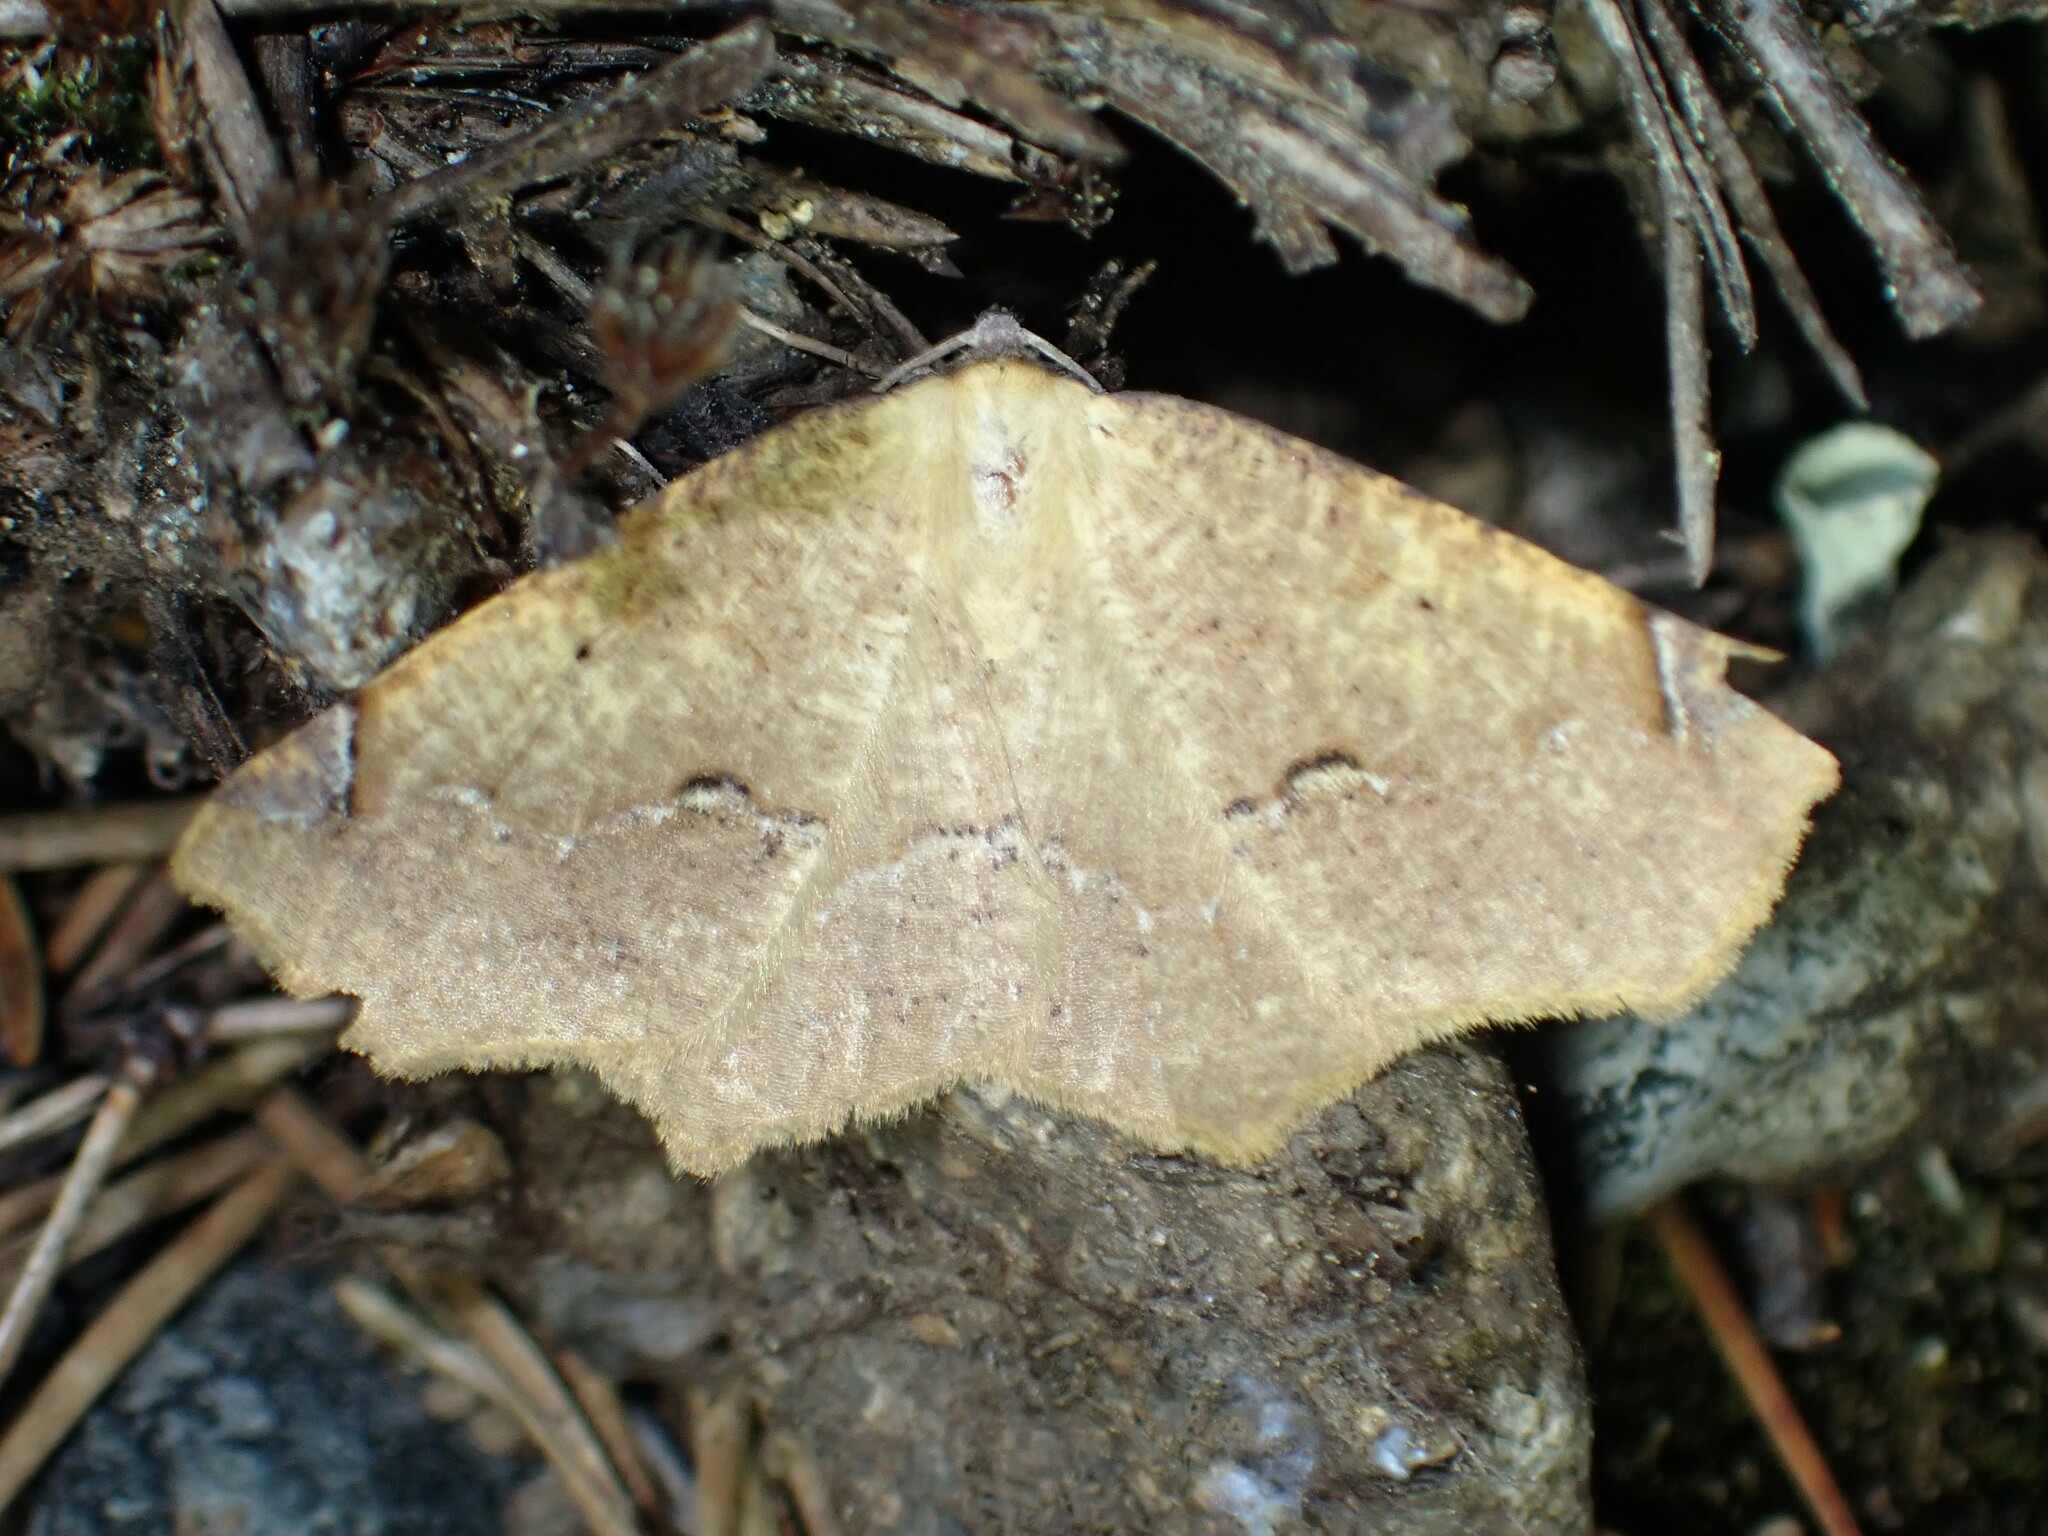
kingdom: Animalia
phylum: Arthropoda
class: Insecta
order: Lepidoptera
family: Geometridae
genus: Antepione
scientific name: Antepione thisoaria
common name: Variable antipione
